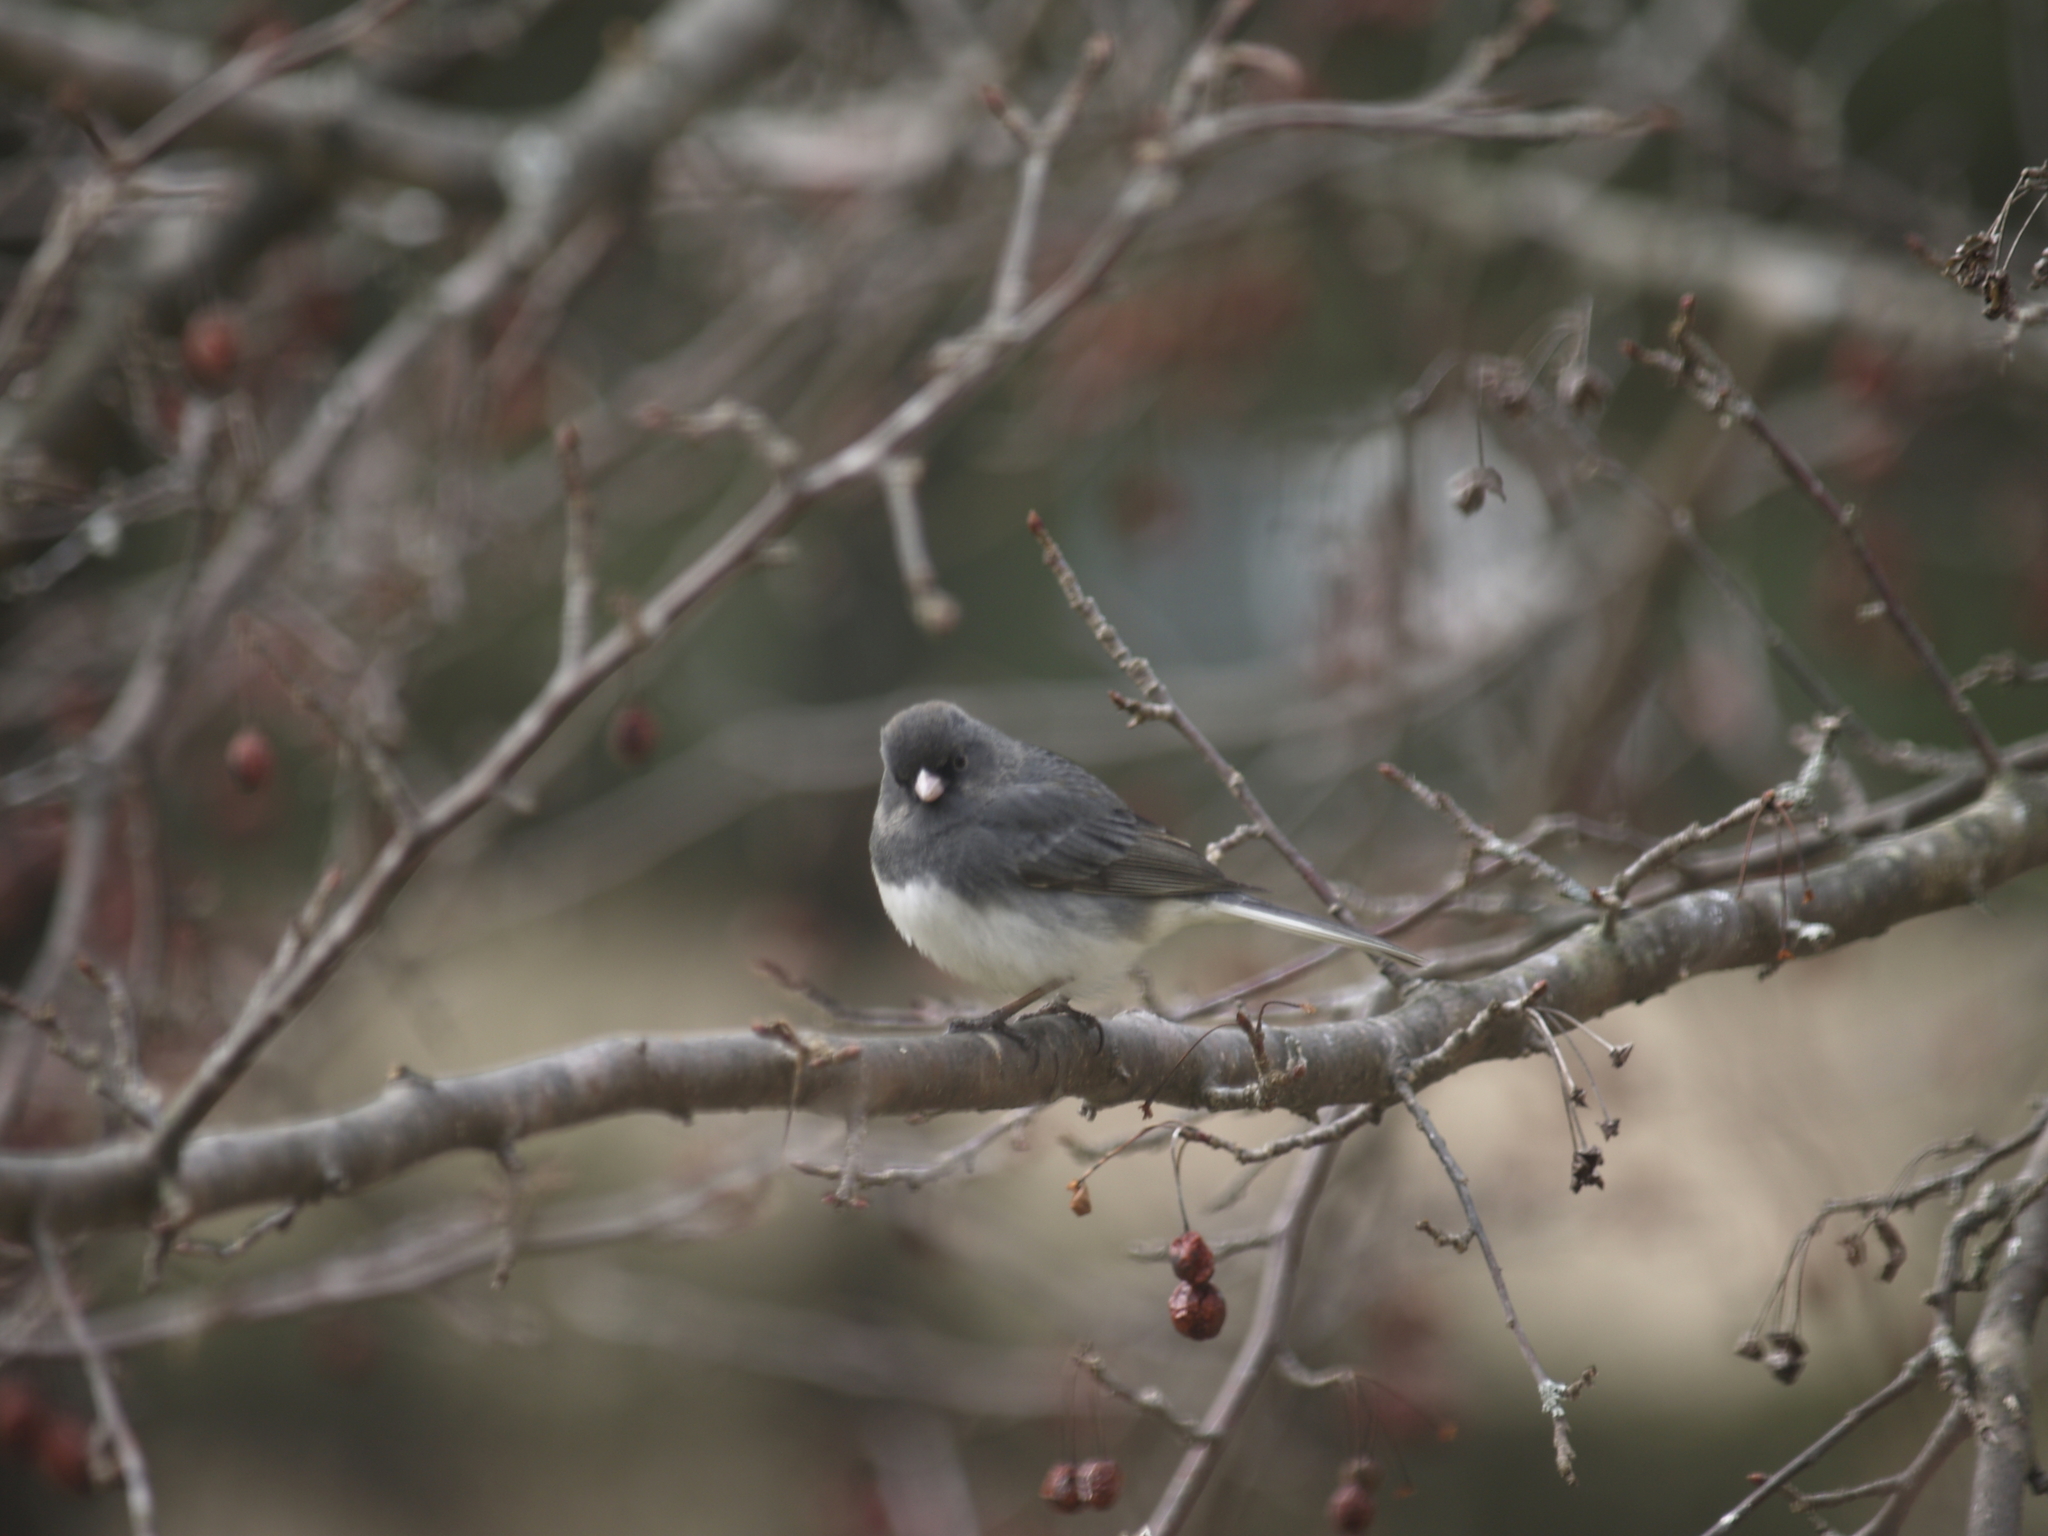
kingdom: Animalia
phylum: Chordata
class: Aves
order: Passeriformes
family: Passerellidae
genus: Junco
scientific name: Junco hyemalis
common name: Dark-eyed junco
